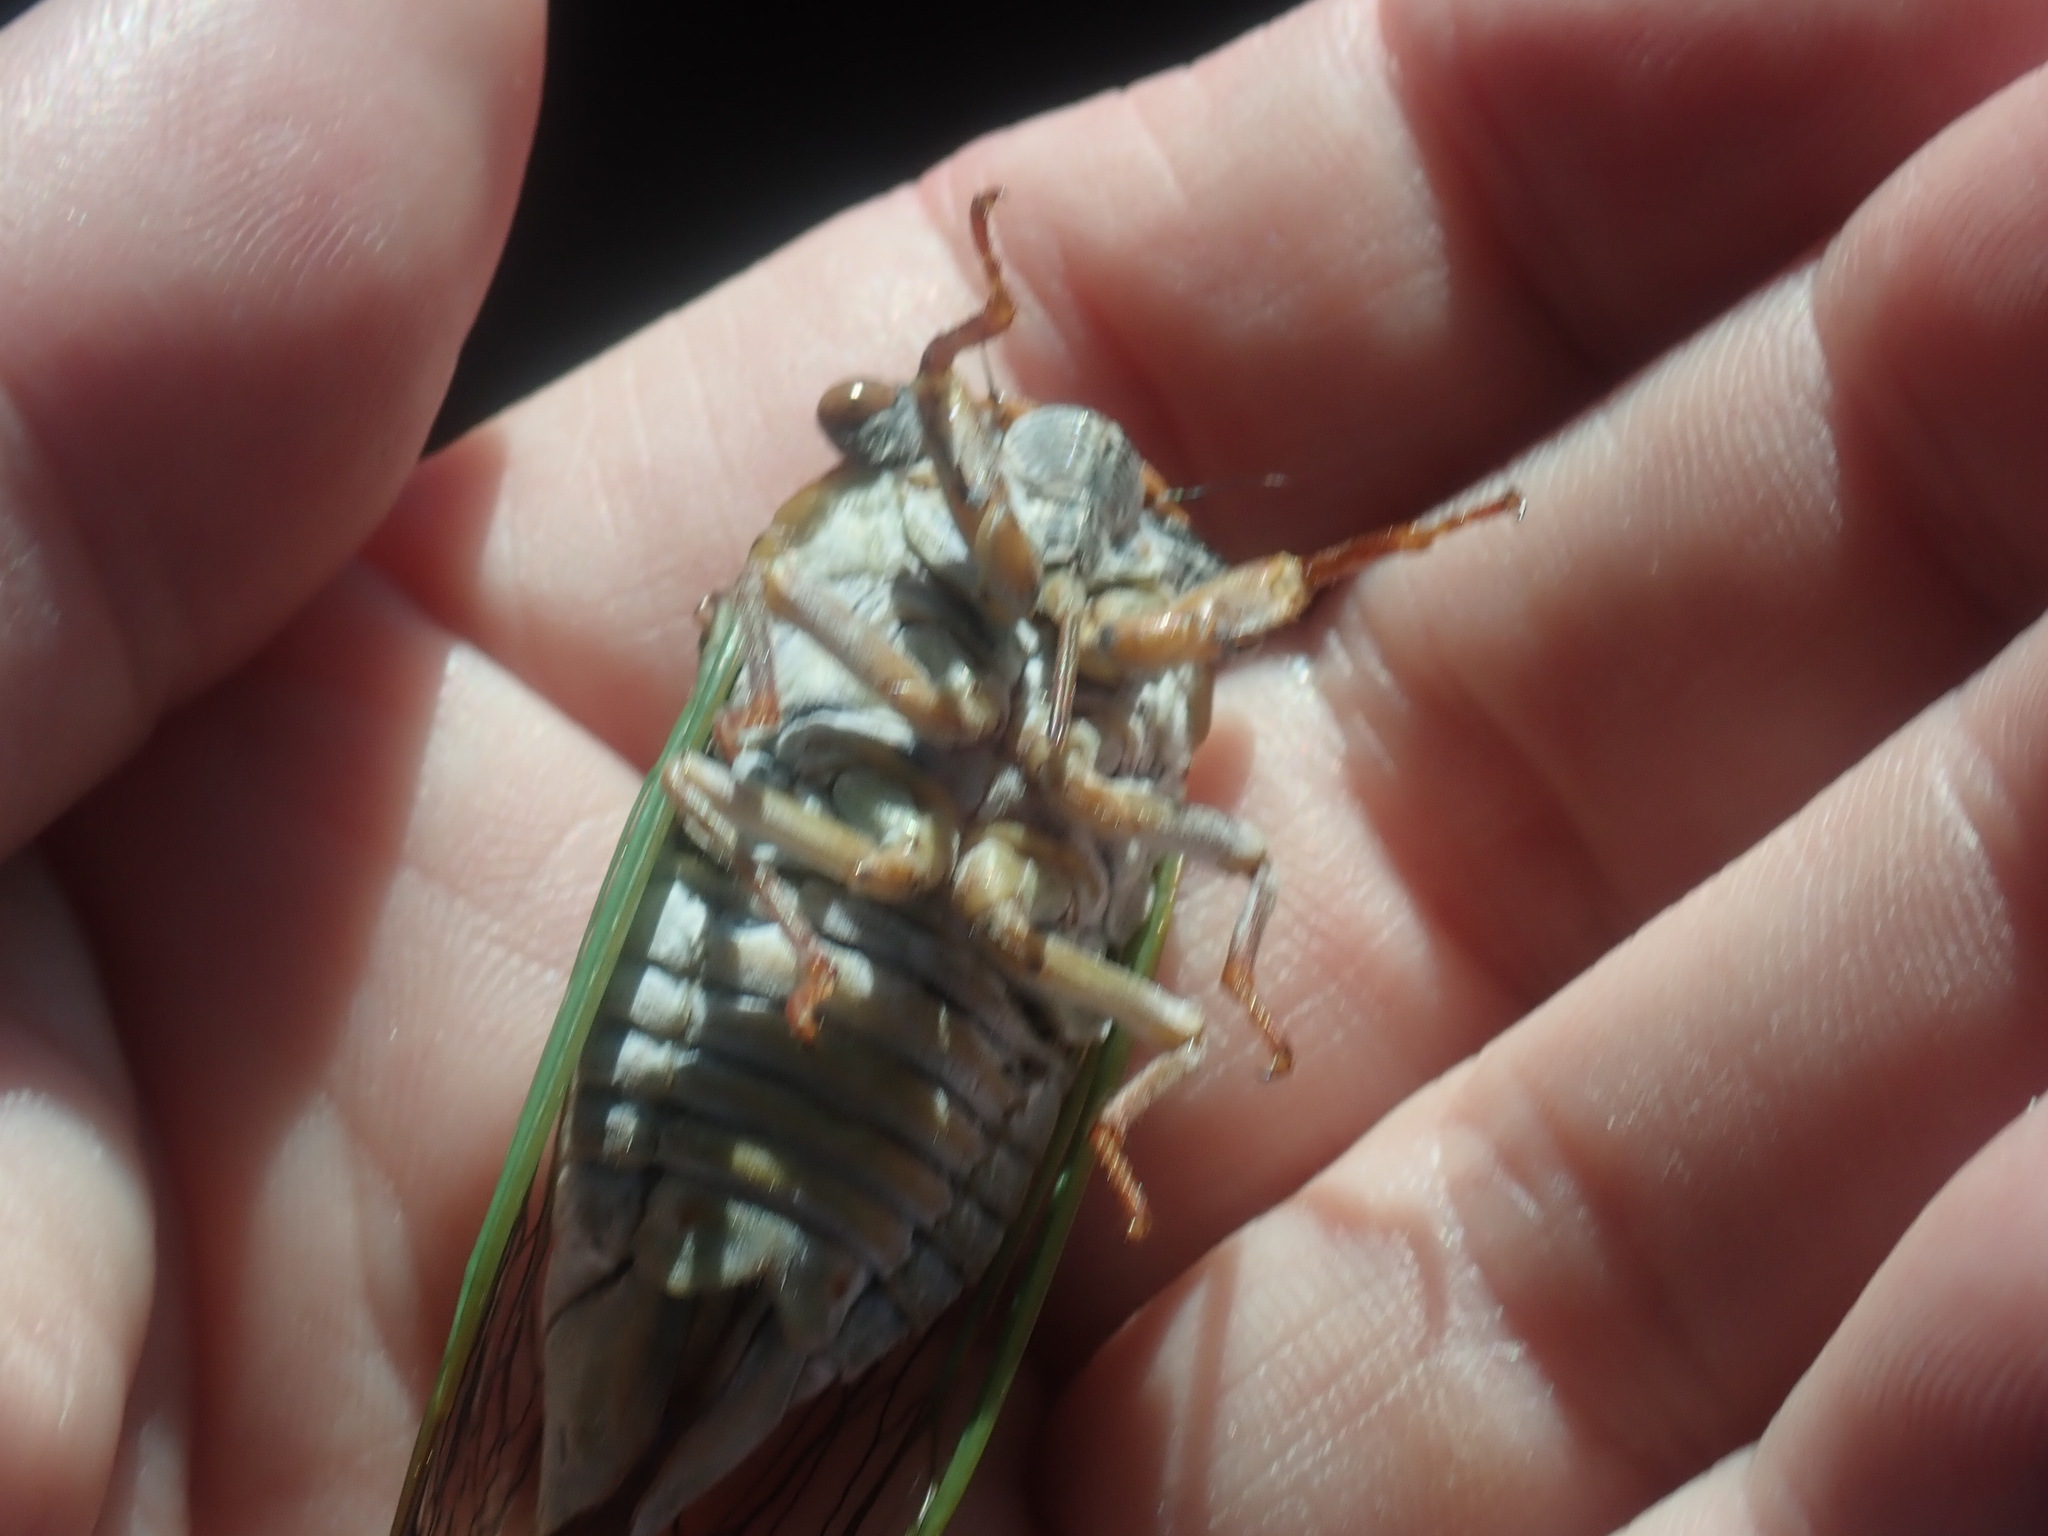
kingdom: Animalia
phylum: Arthropoda
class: Insecta
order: Hemiptera
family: Cicadidae
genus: Megatibicen
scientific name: Megatibicen cultriformis
